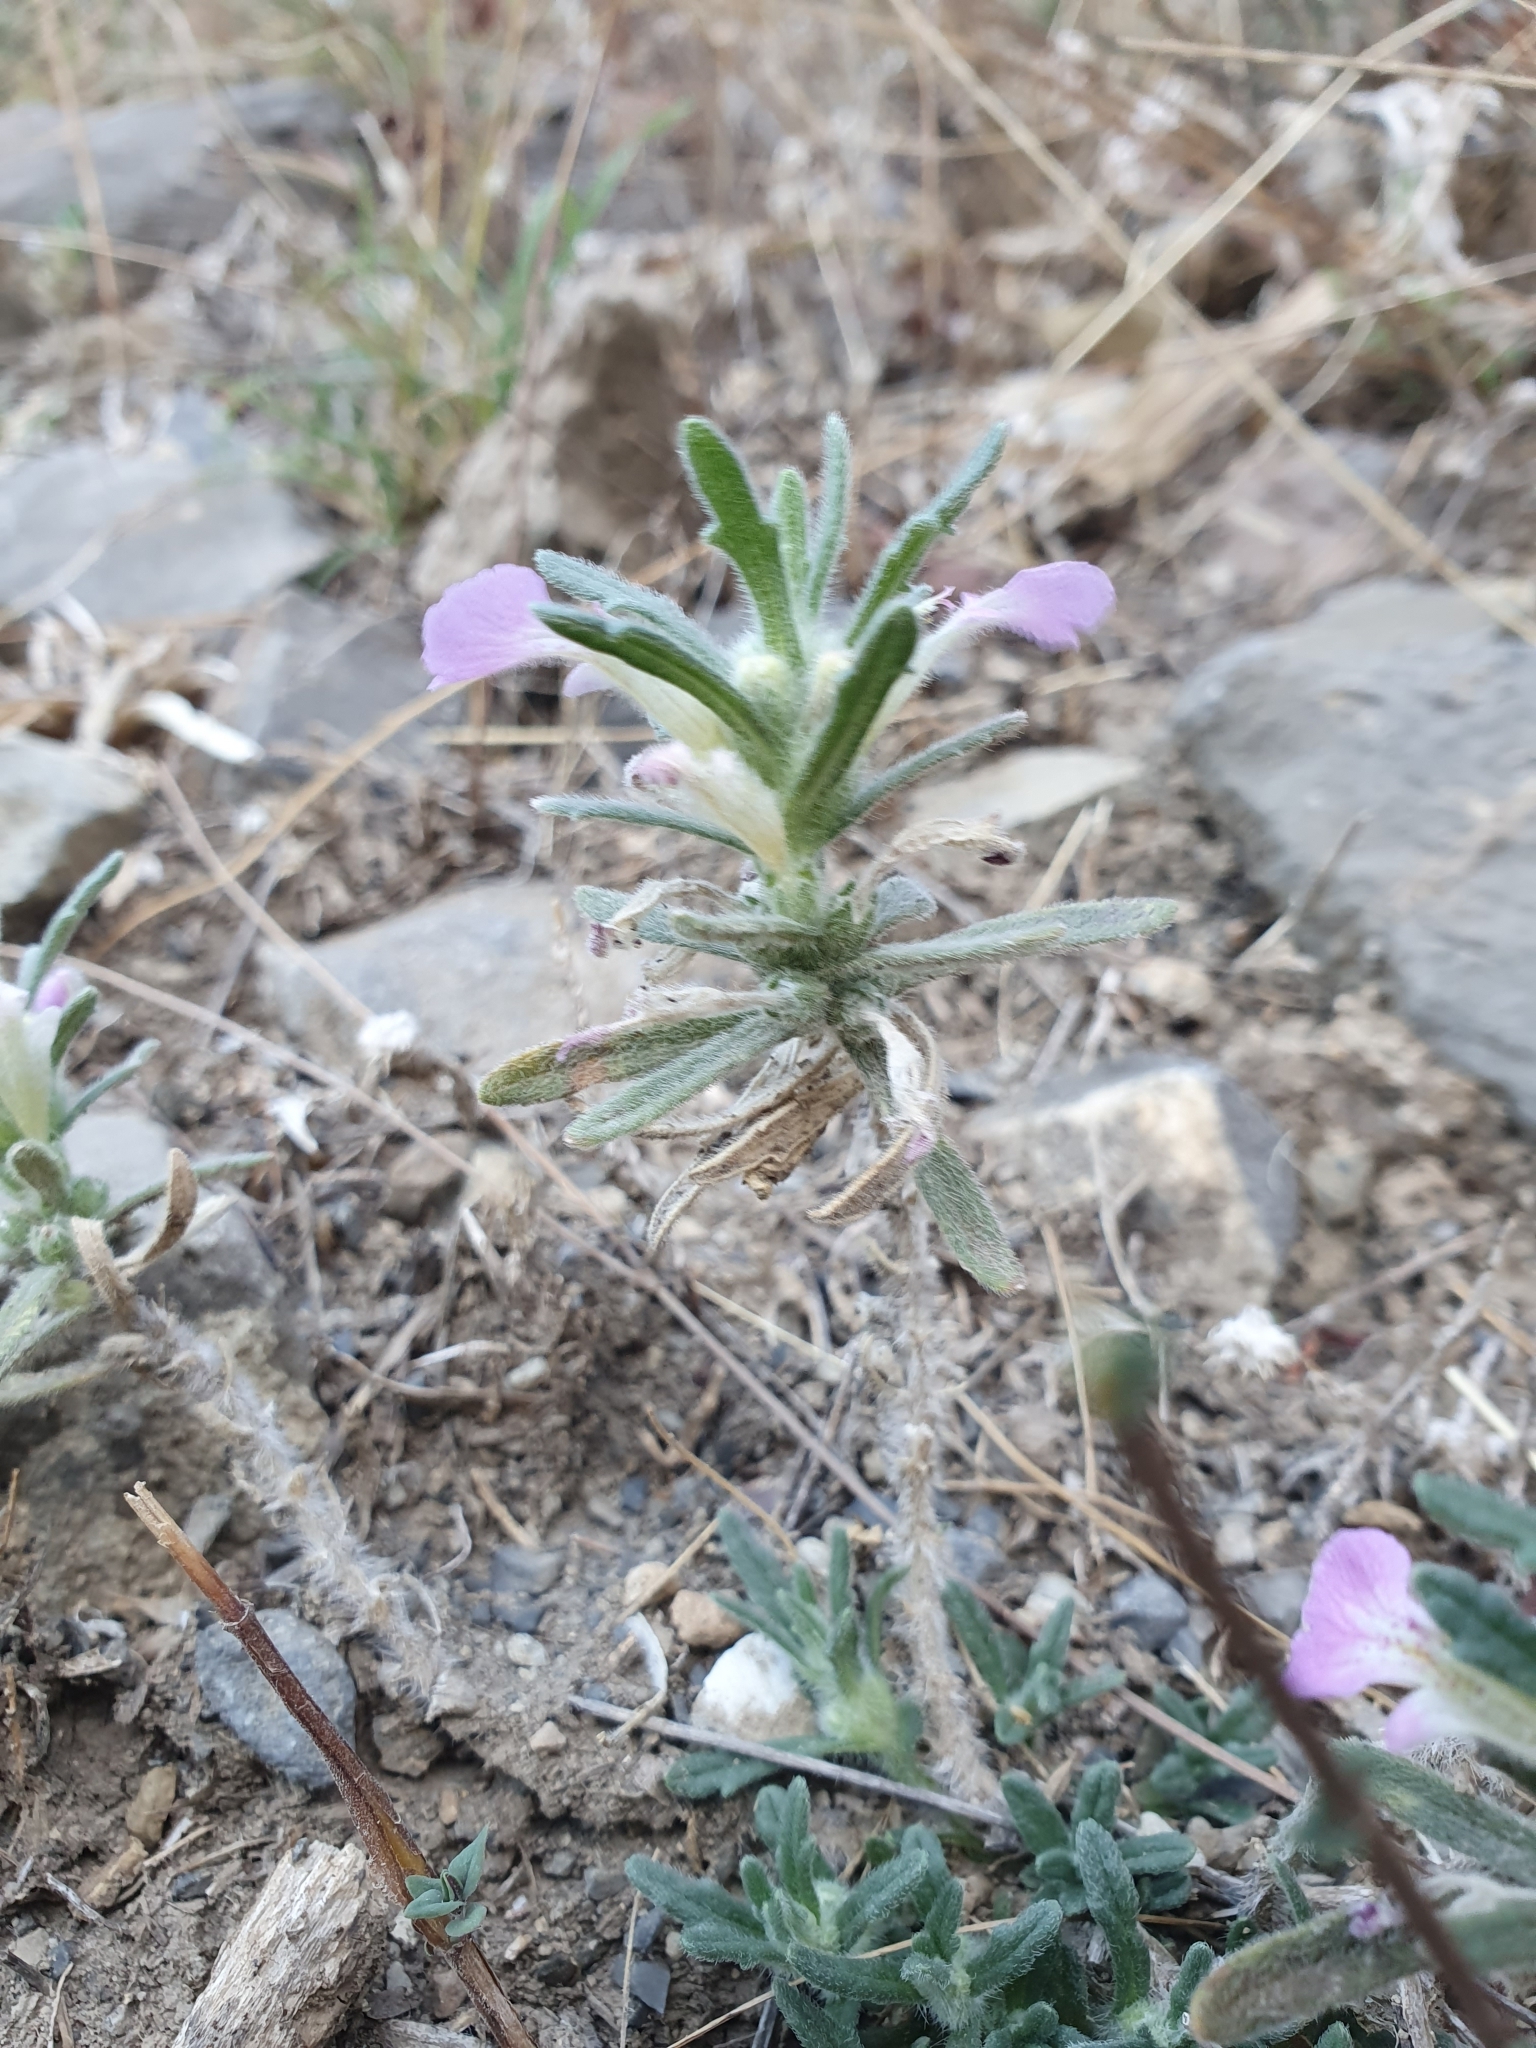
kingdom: Plantae
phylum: Tracheophyta
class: Magnoliopsida
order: Lamiales
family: Lamiaceae
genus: Ajuga
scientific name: Ajuga iva
